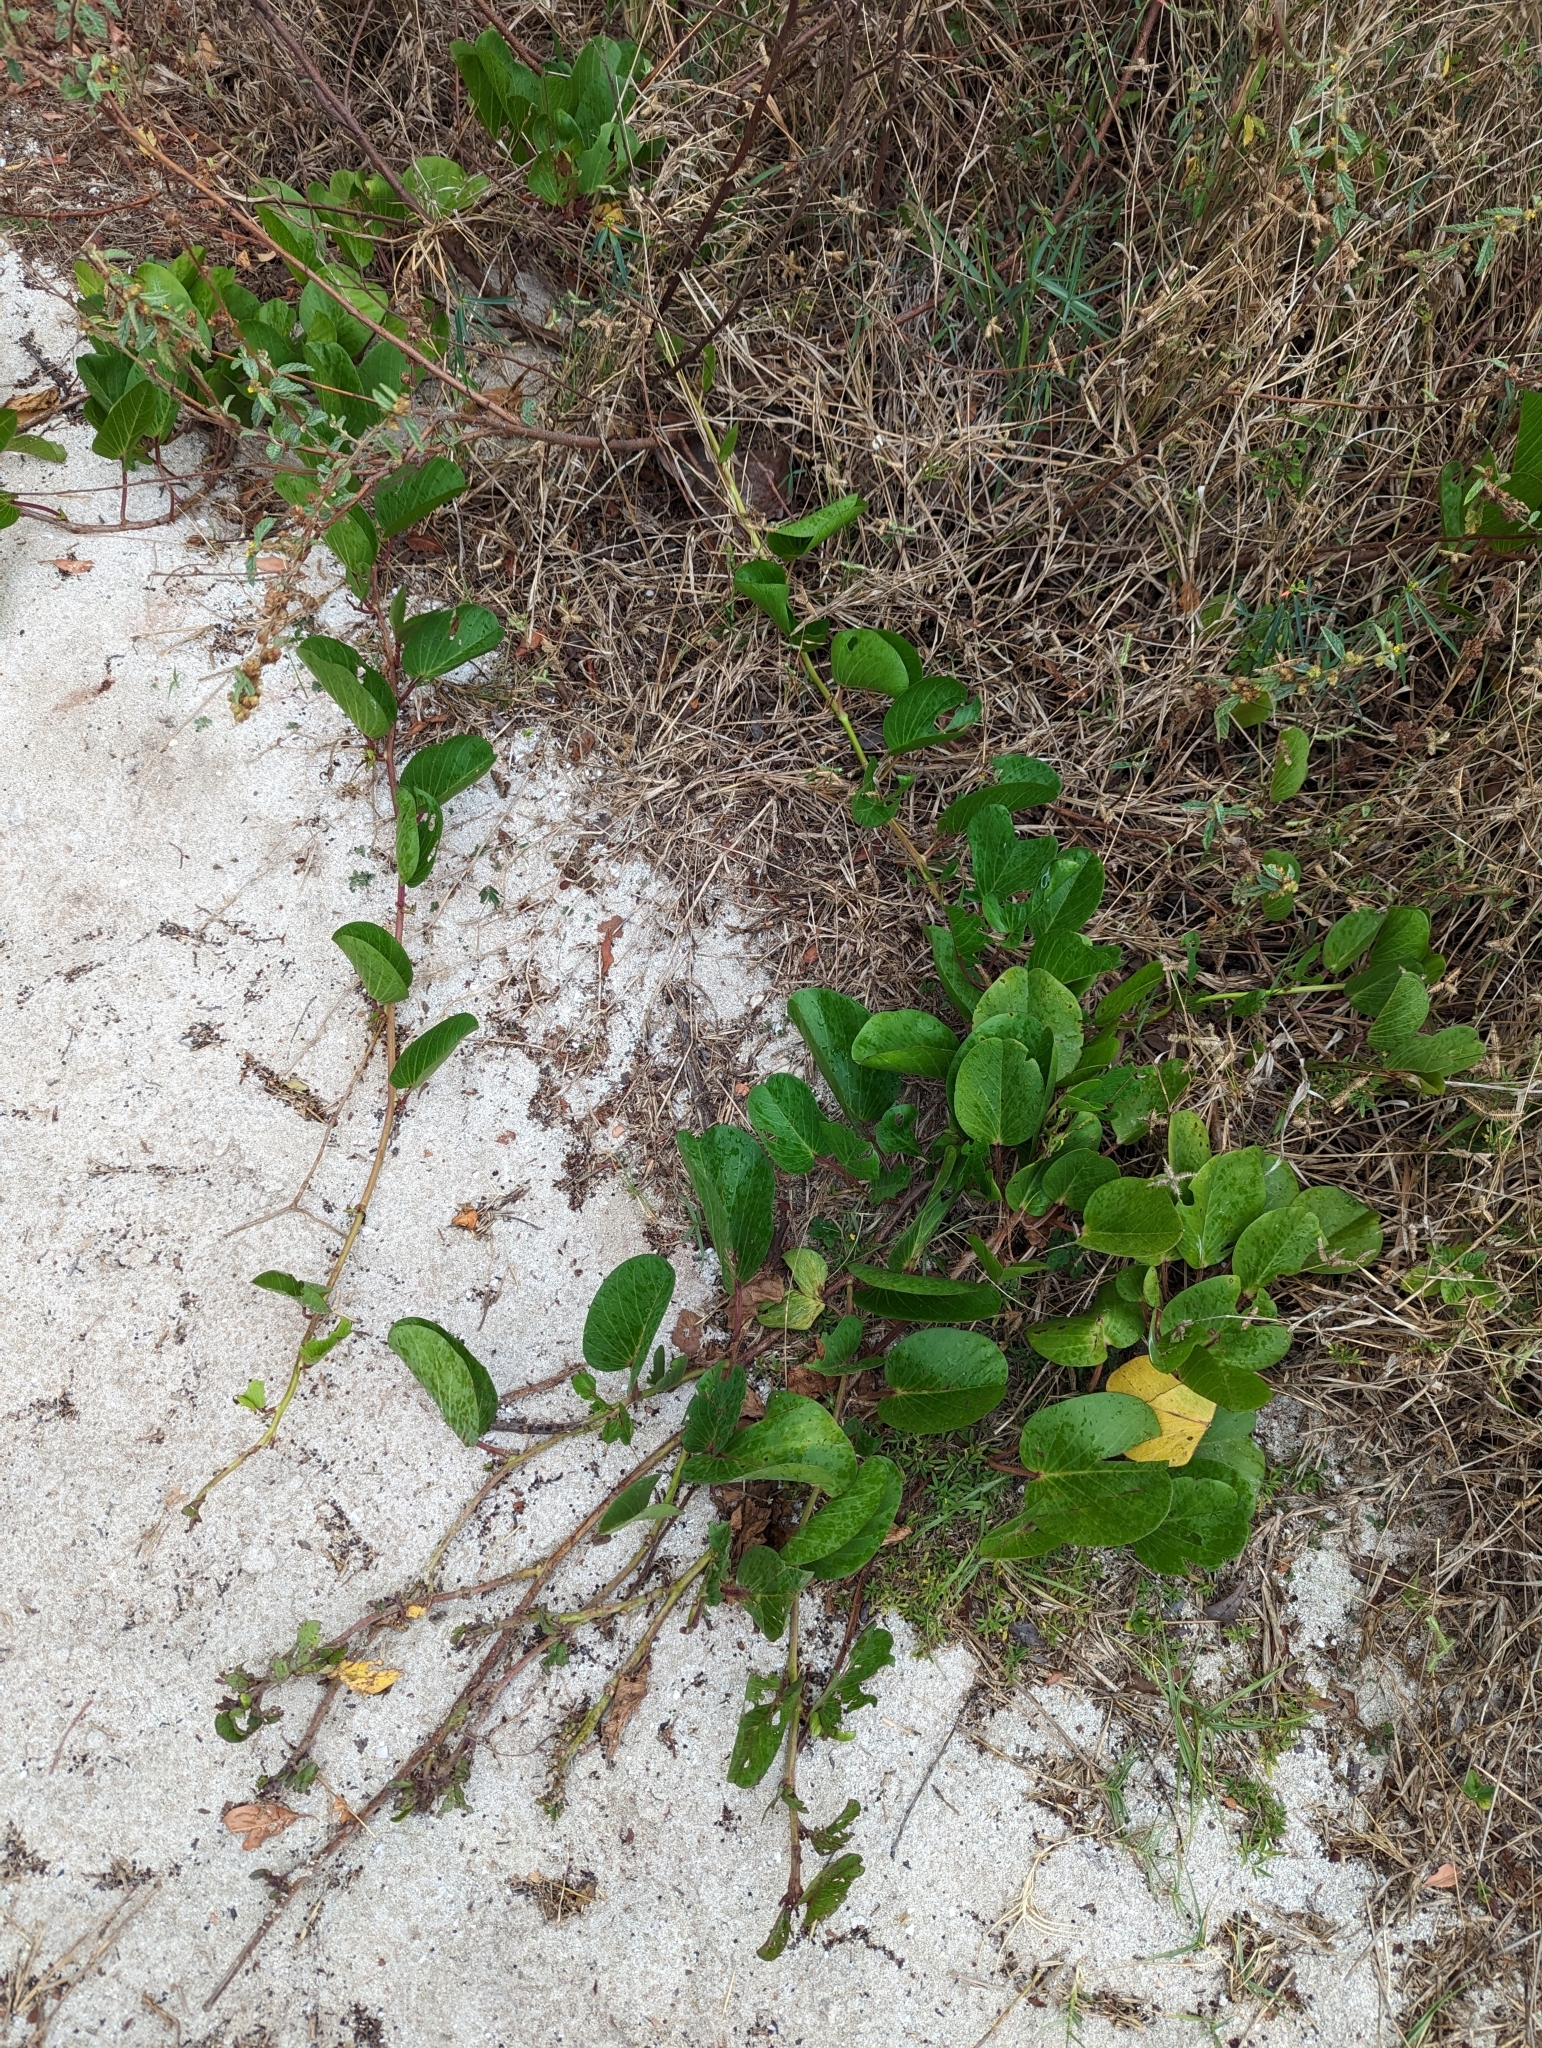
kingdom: Plantae
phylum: Tracheophyta
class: Magnoliopsida
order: Solanales
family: Convolvulaceae
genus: Ipomoea
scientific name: Ipomoea pes-caprae
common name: Beach morning glory
